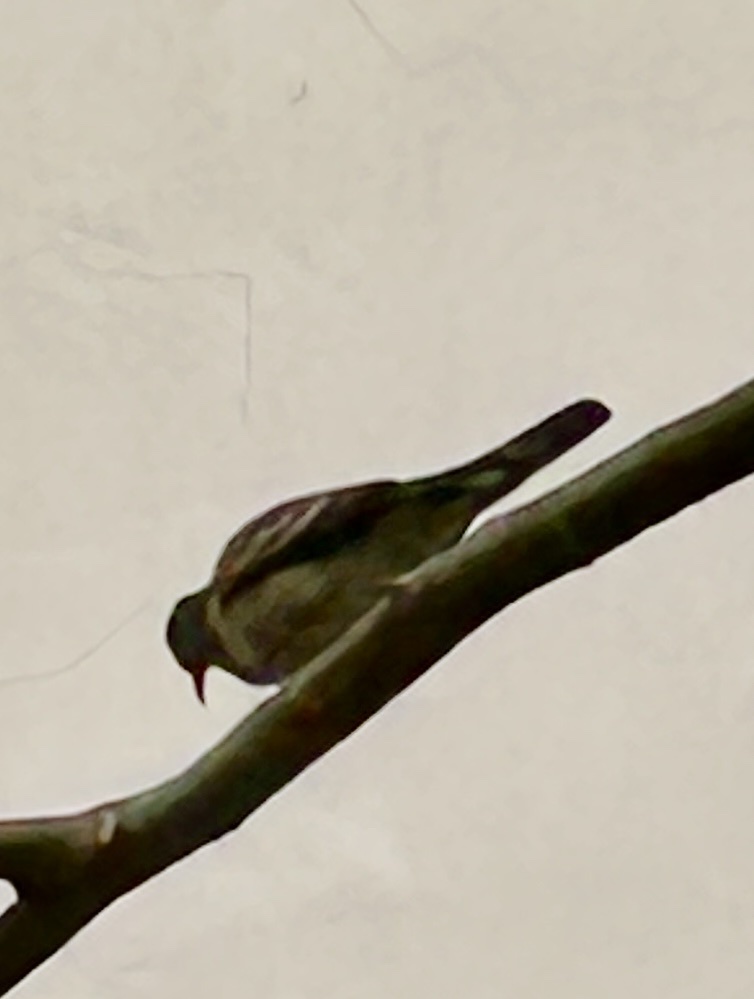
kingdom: Animalia
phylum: Chordata
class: Aves
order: Columbiformes
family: Columbidae
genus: Geopelia
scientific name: Geopelia striata
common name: Zebra dove
